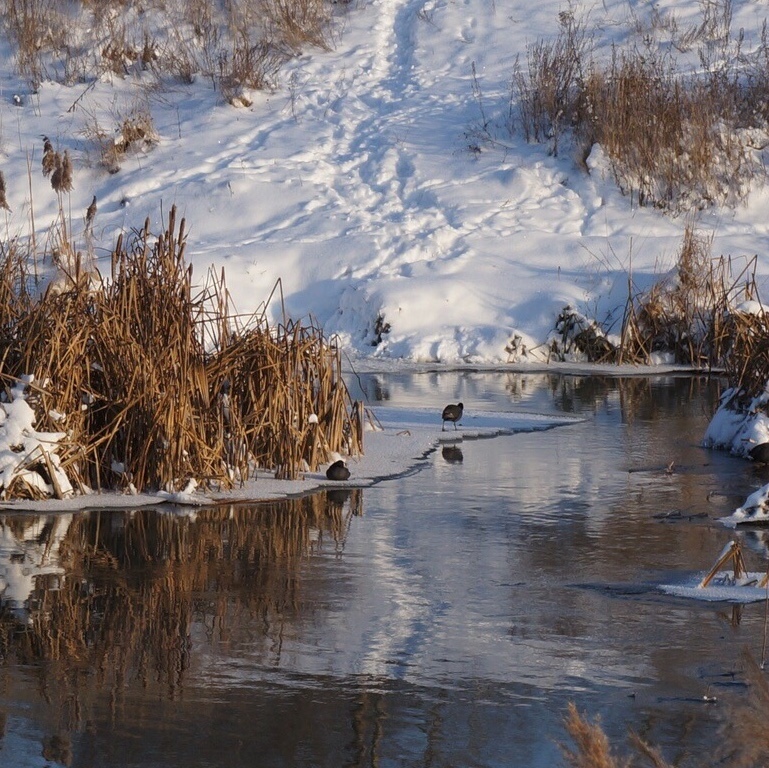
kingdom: Animalia
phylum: Chordata
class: Aves
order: Gruiformes
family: Rallidae
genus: Fulica
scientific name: Fulica atra
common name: Eurasian coot
